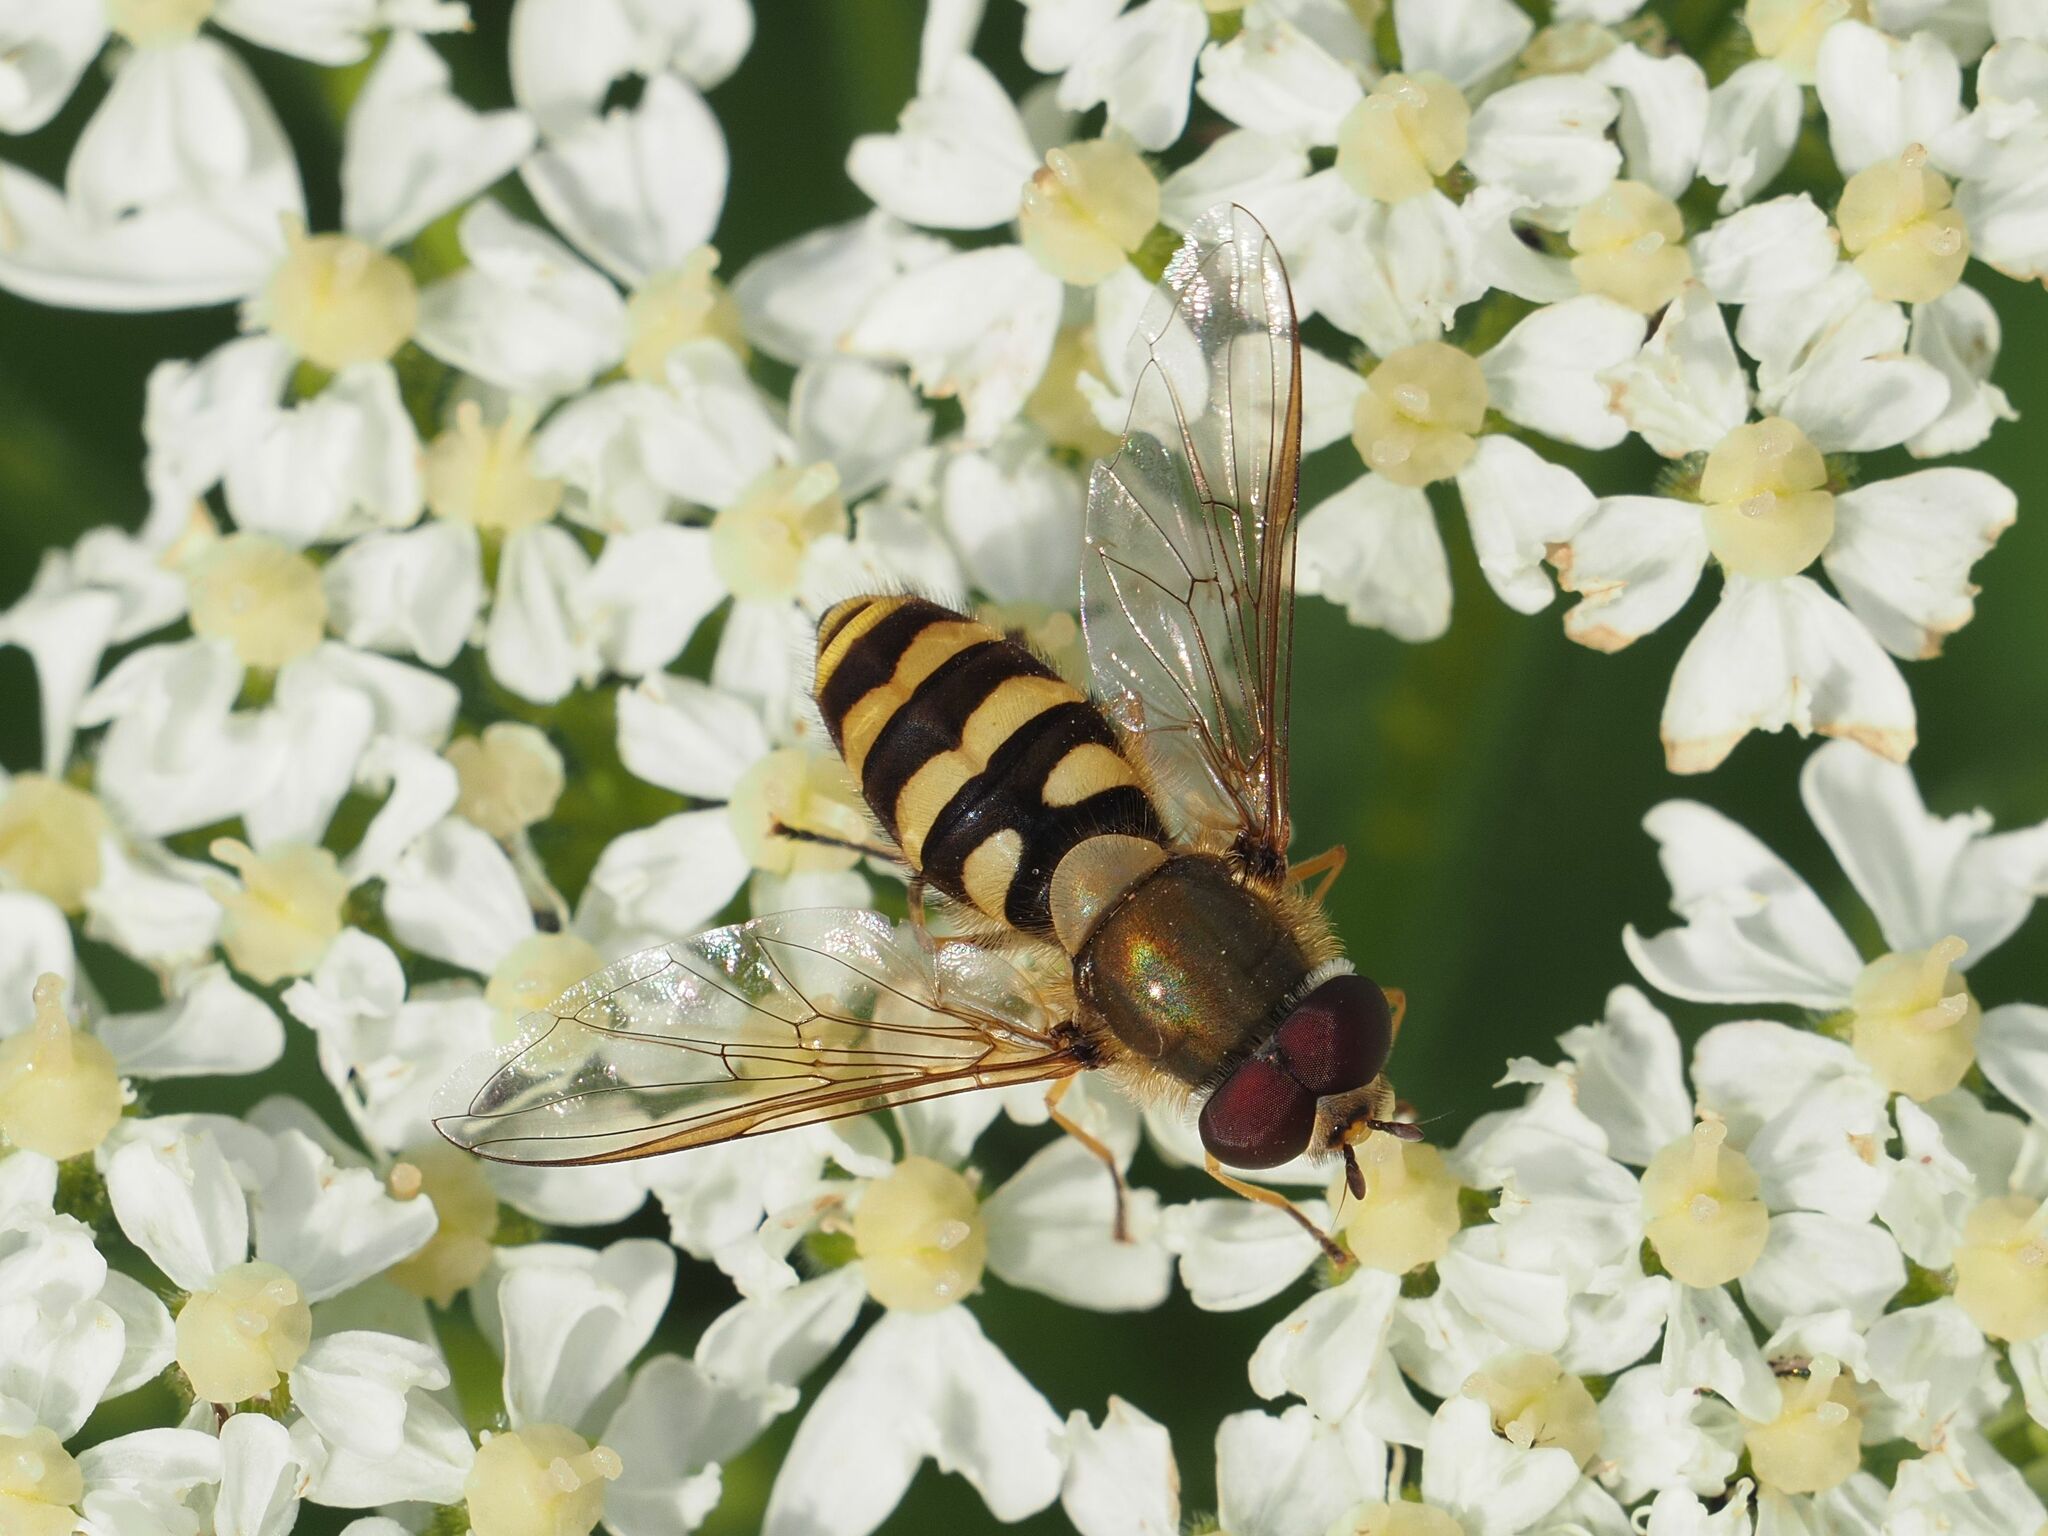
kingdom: Animalia
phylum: Arthropoda
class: Insecta
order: Diptera
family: Syrphidae
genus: Syrphus
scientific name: Syrphus
